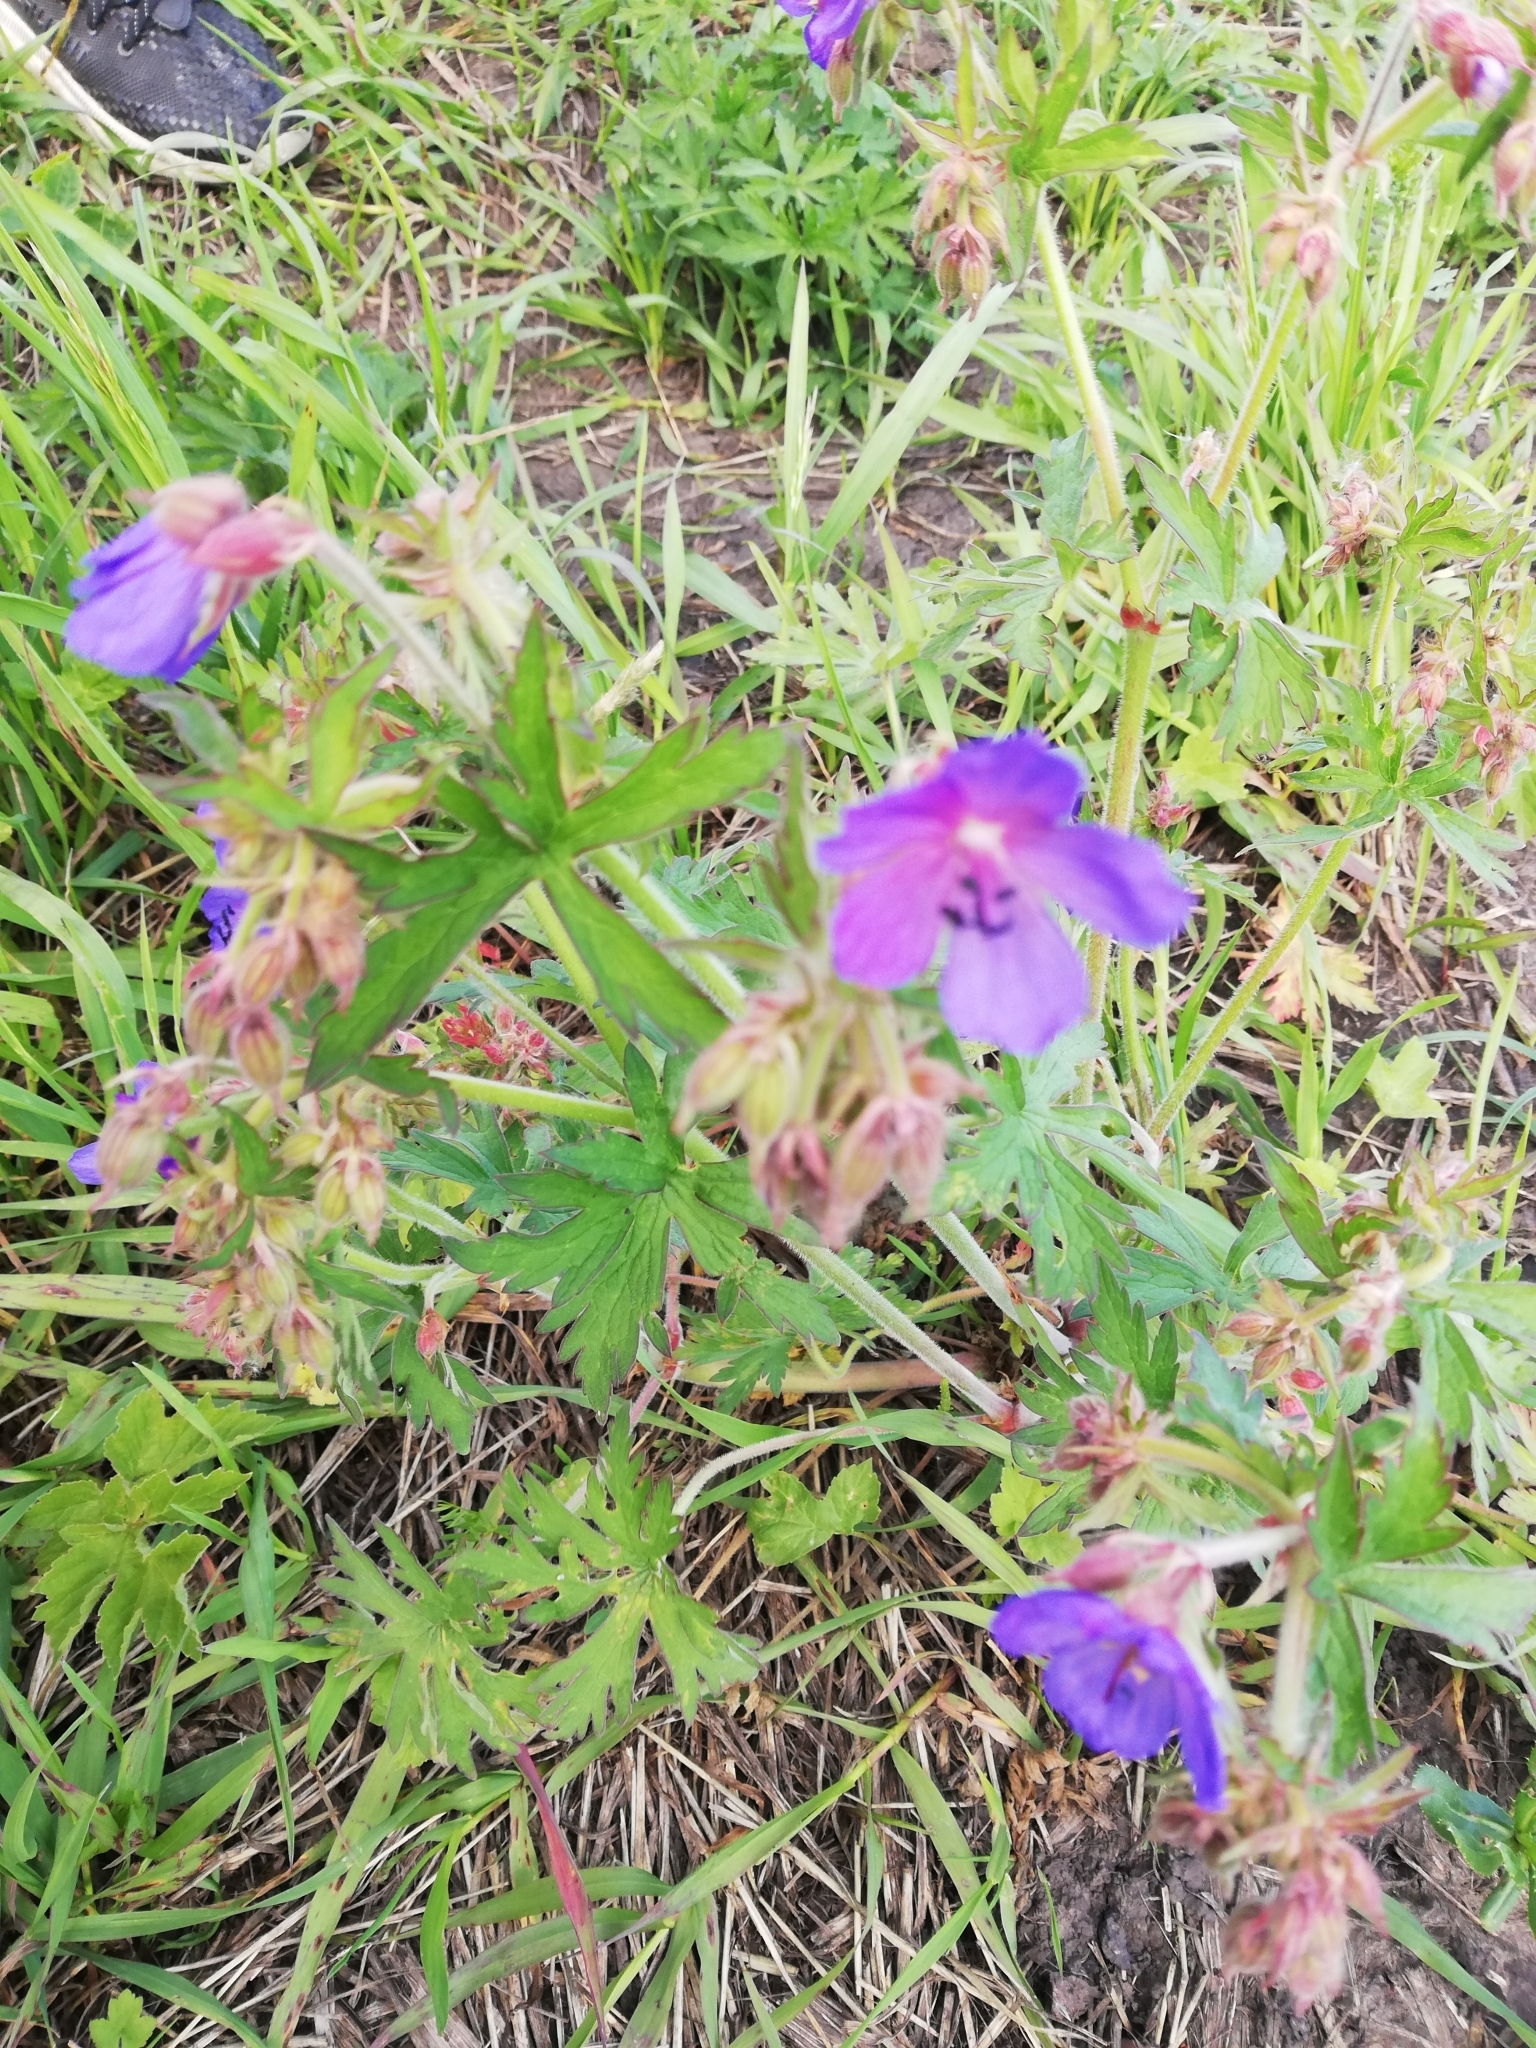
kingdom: Plantae
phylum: Tracheophyta
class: Magnoliopsida
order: Geraniales
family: Geraniaceae
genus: Geranium
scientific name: Geranium pratense
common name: Meadow crane's-bill
